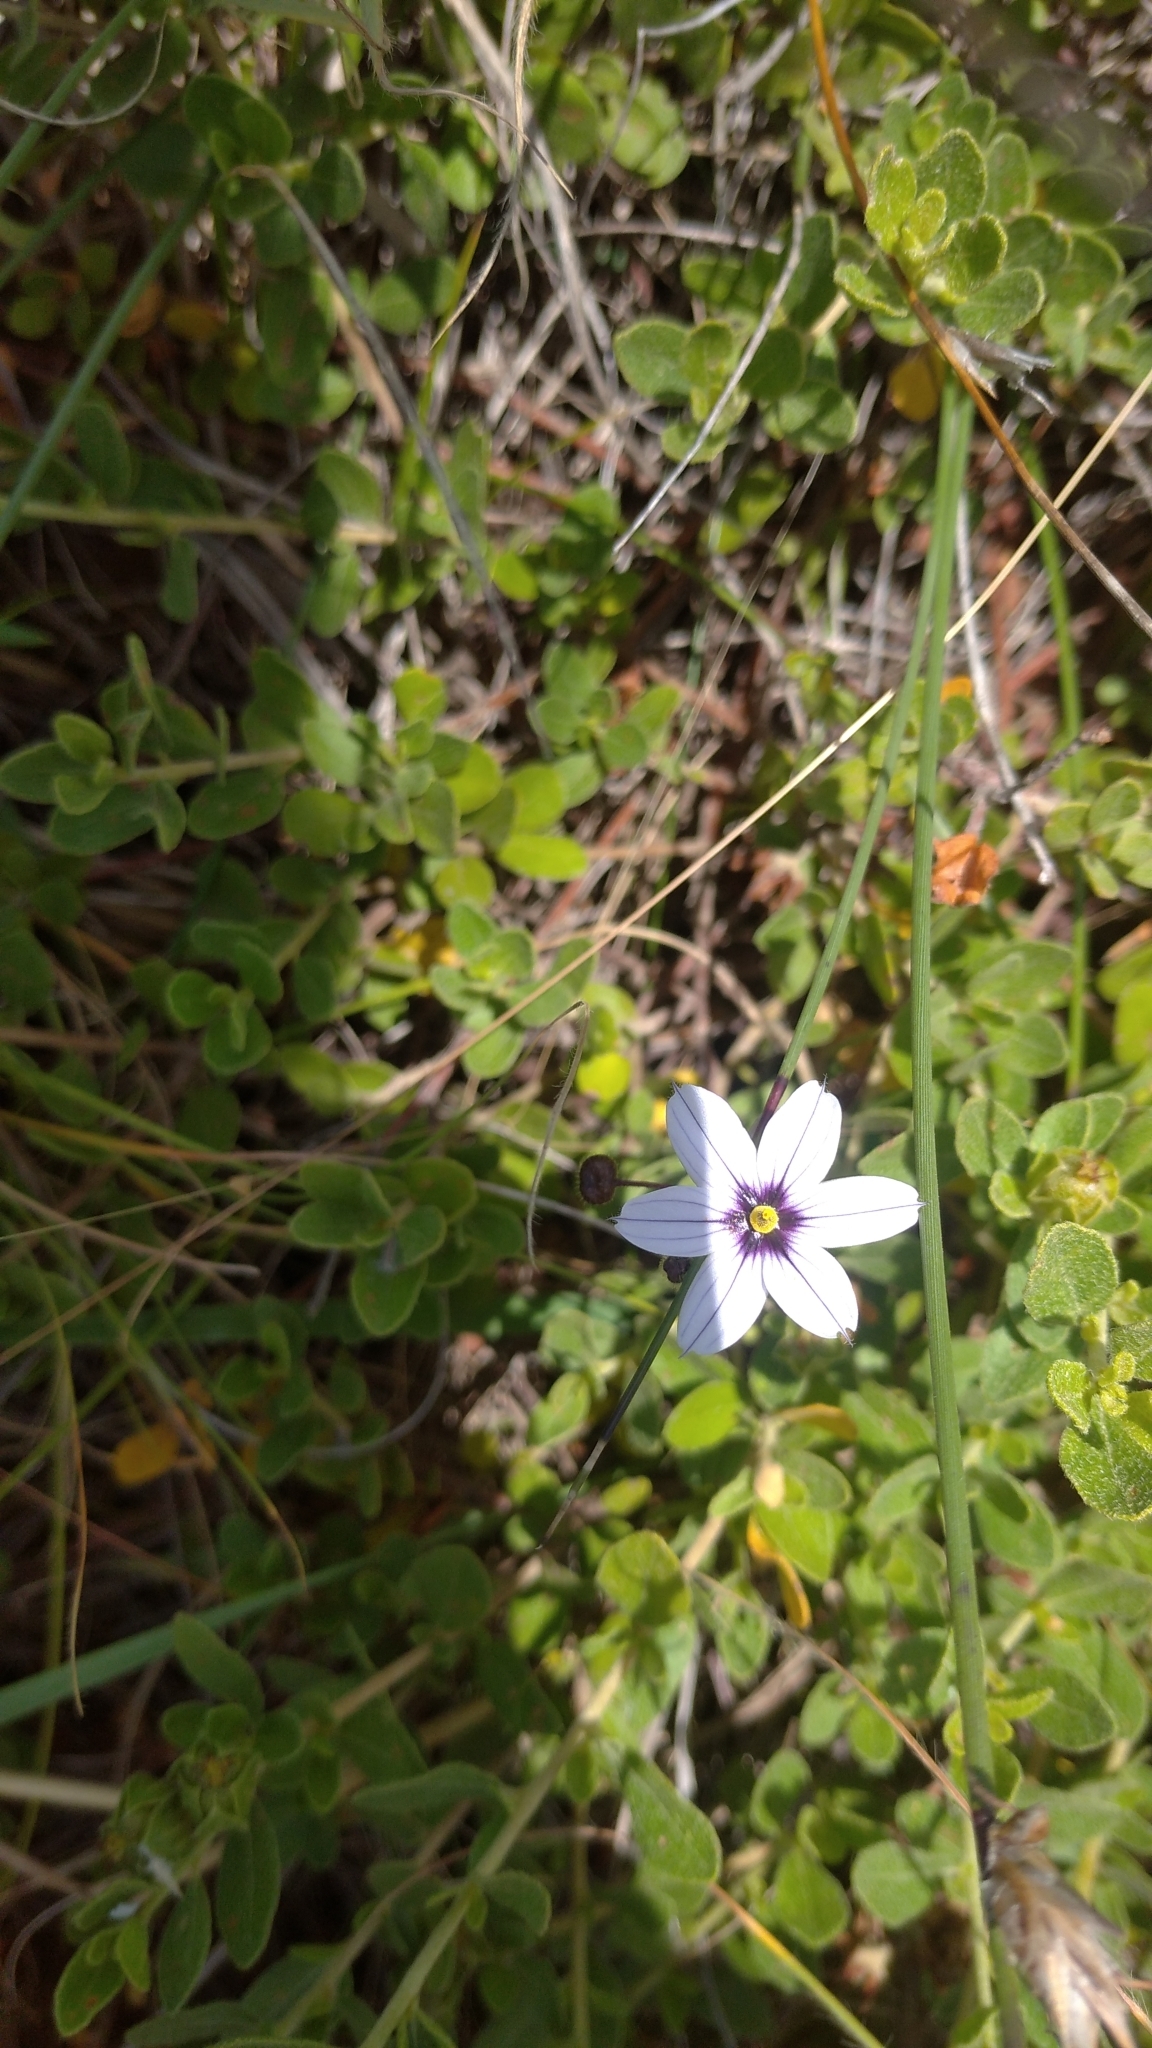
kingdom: Plantae
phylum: Tracheophyta
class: Liliopsida
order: Asparagales
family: Iridaceae
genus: Sisyrinchium
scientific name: Sisyrinchium scariosum
